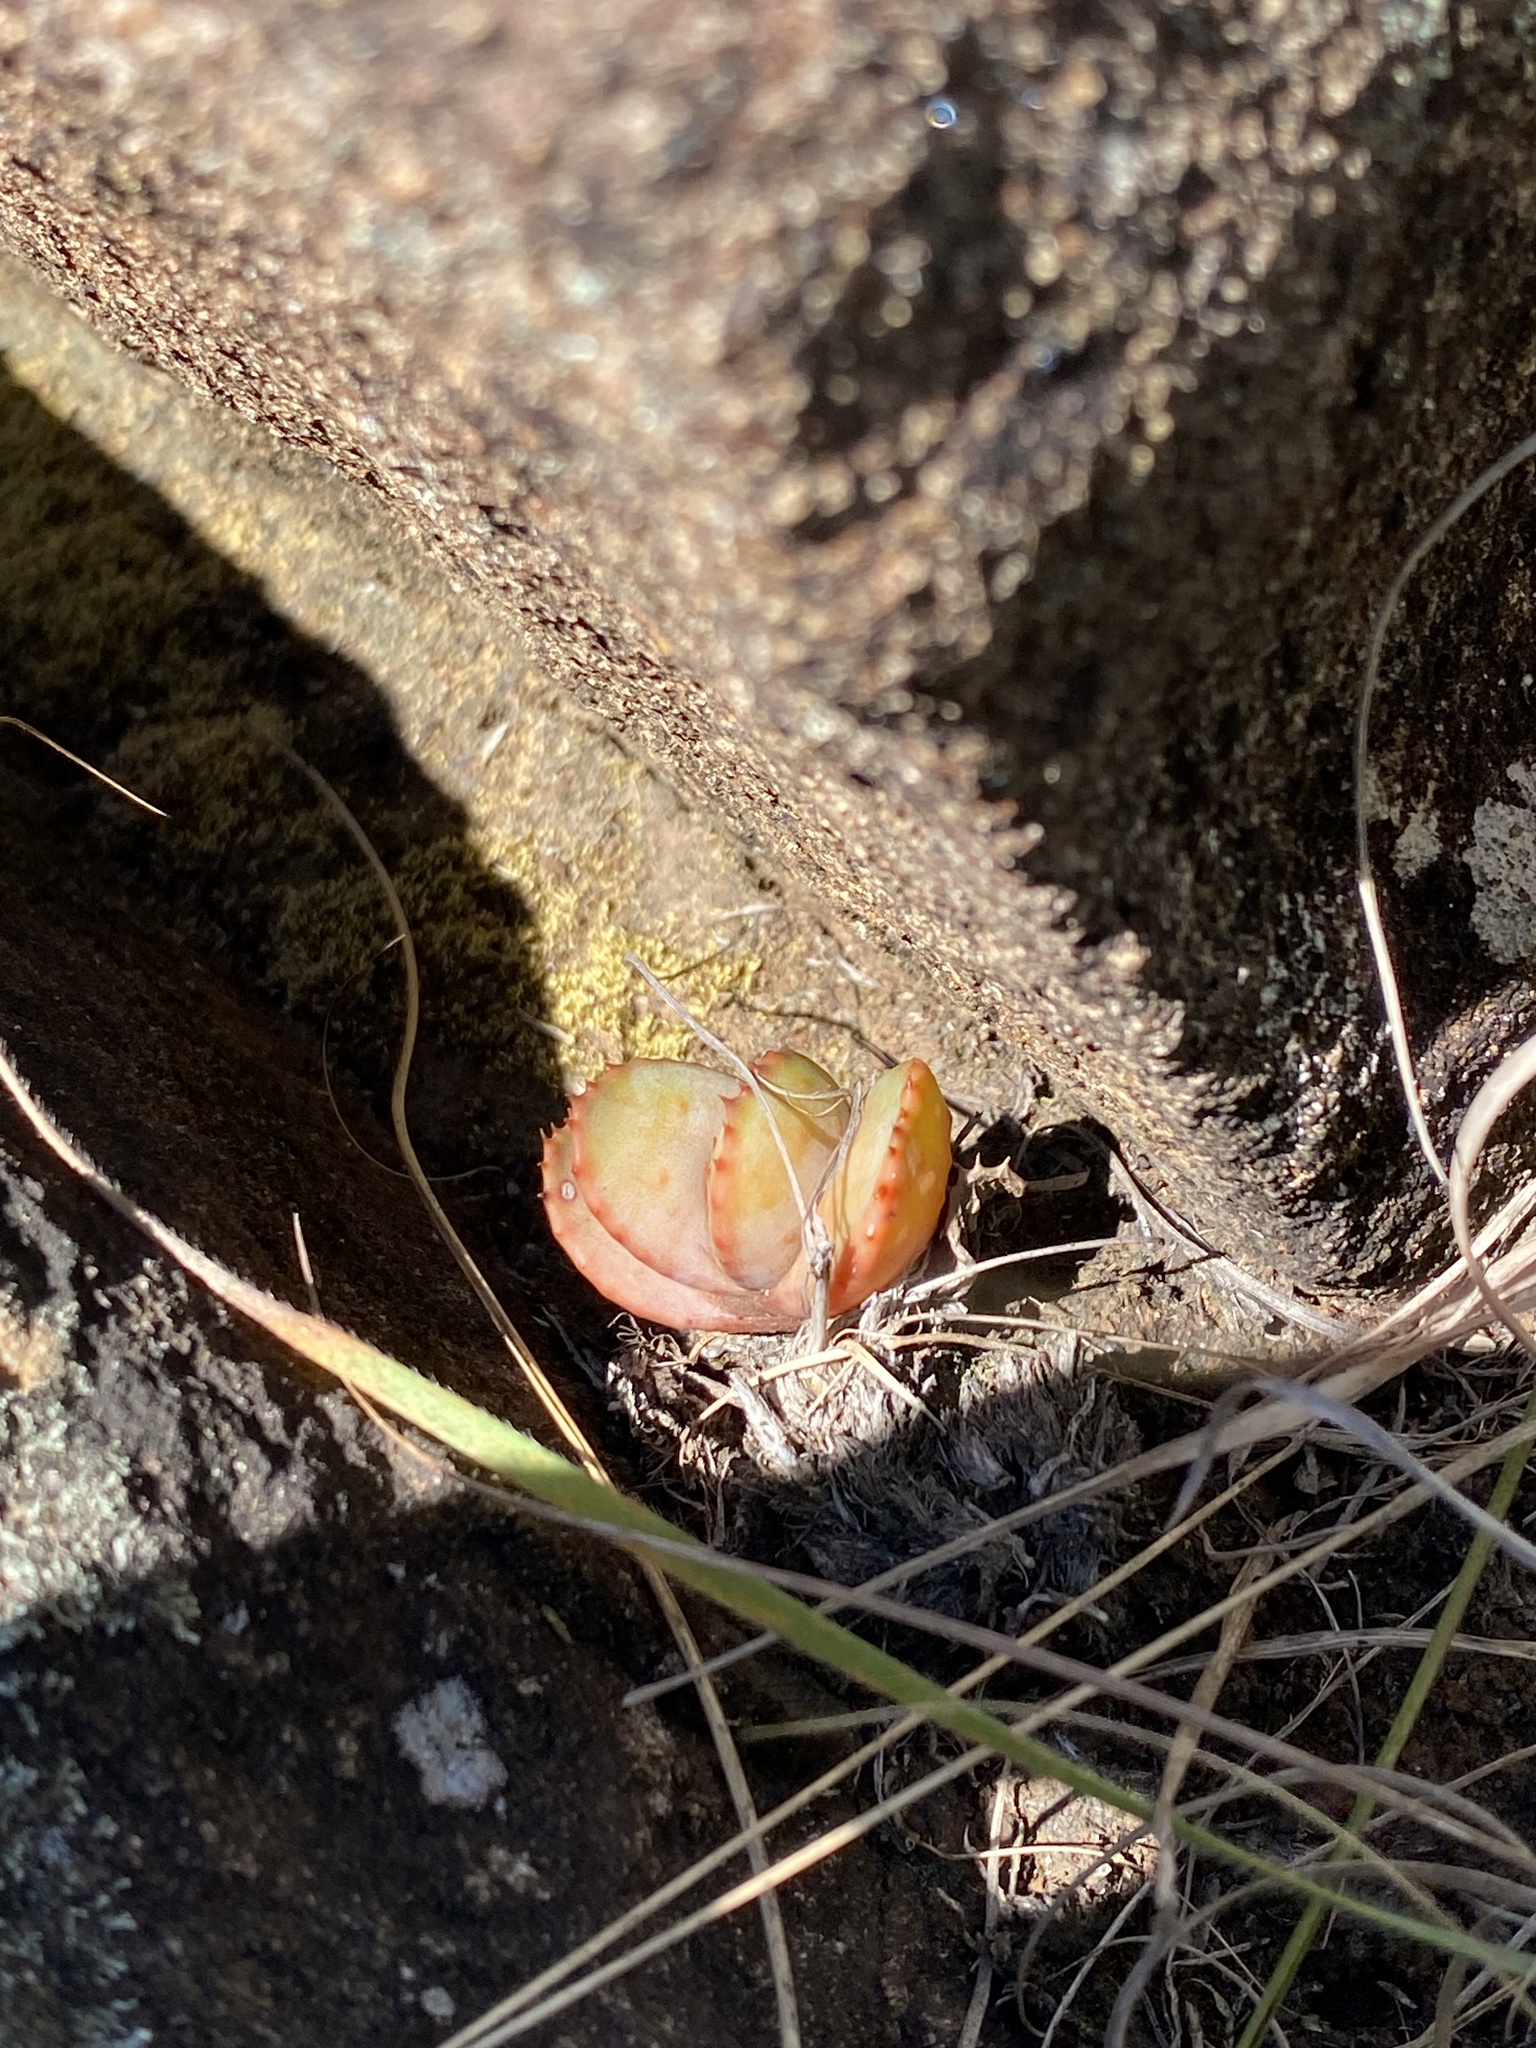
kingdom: Plantae
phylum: Tracheophyta
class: Liliopsida
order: Asparagales
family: Asphodelaceae
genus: Aloe
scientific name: Aloe ferox
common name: Bitter aloe
